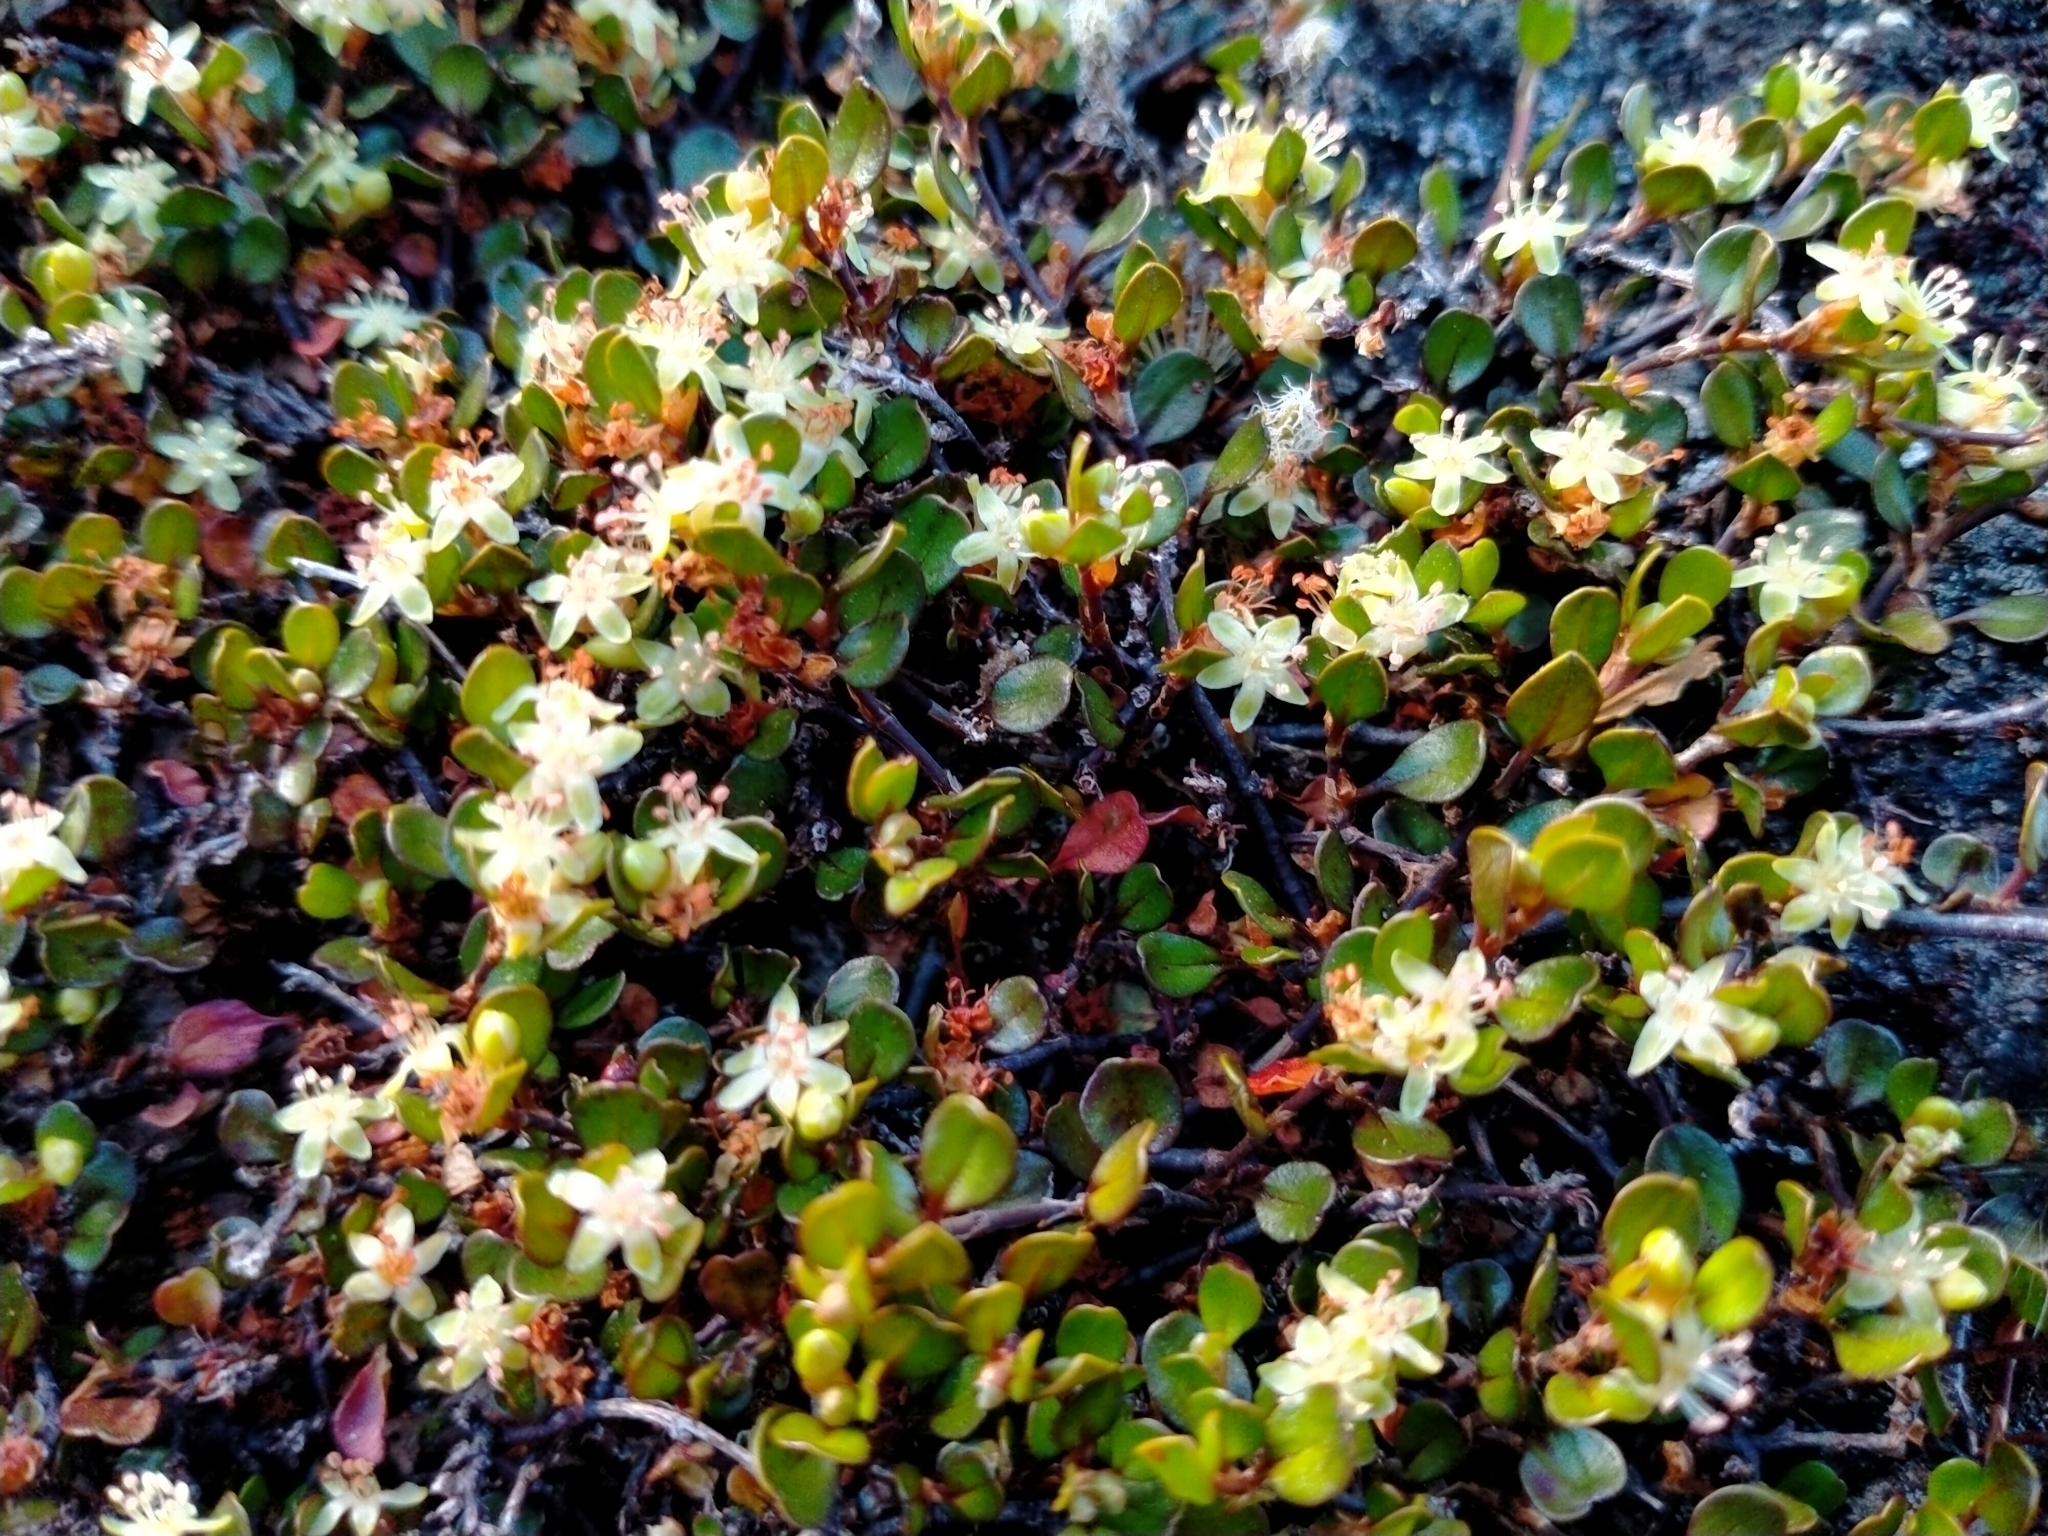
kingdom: Plantae
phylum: Tracheophyta
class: Magnoliopsida
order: Caryophyllales
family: Polygonaceae
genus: Muehlenbeckia
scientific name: Muehlenbeckia axillaris
